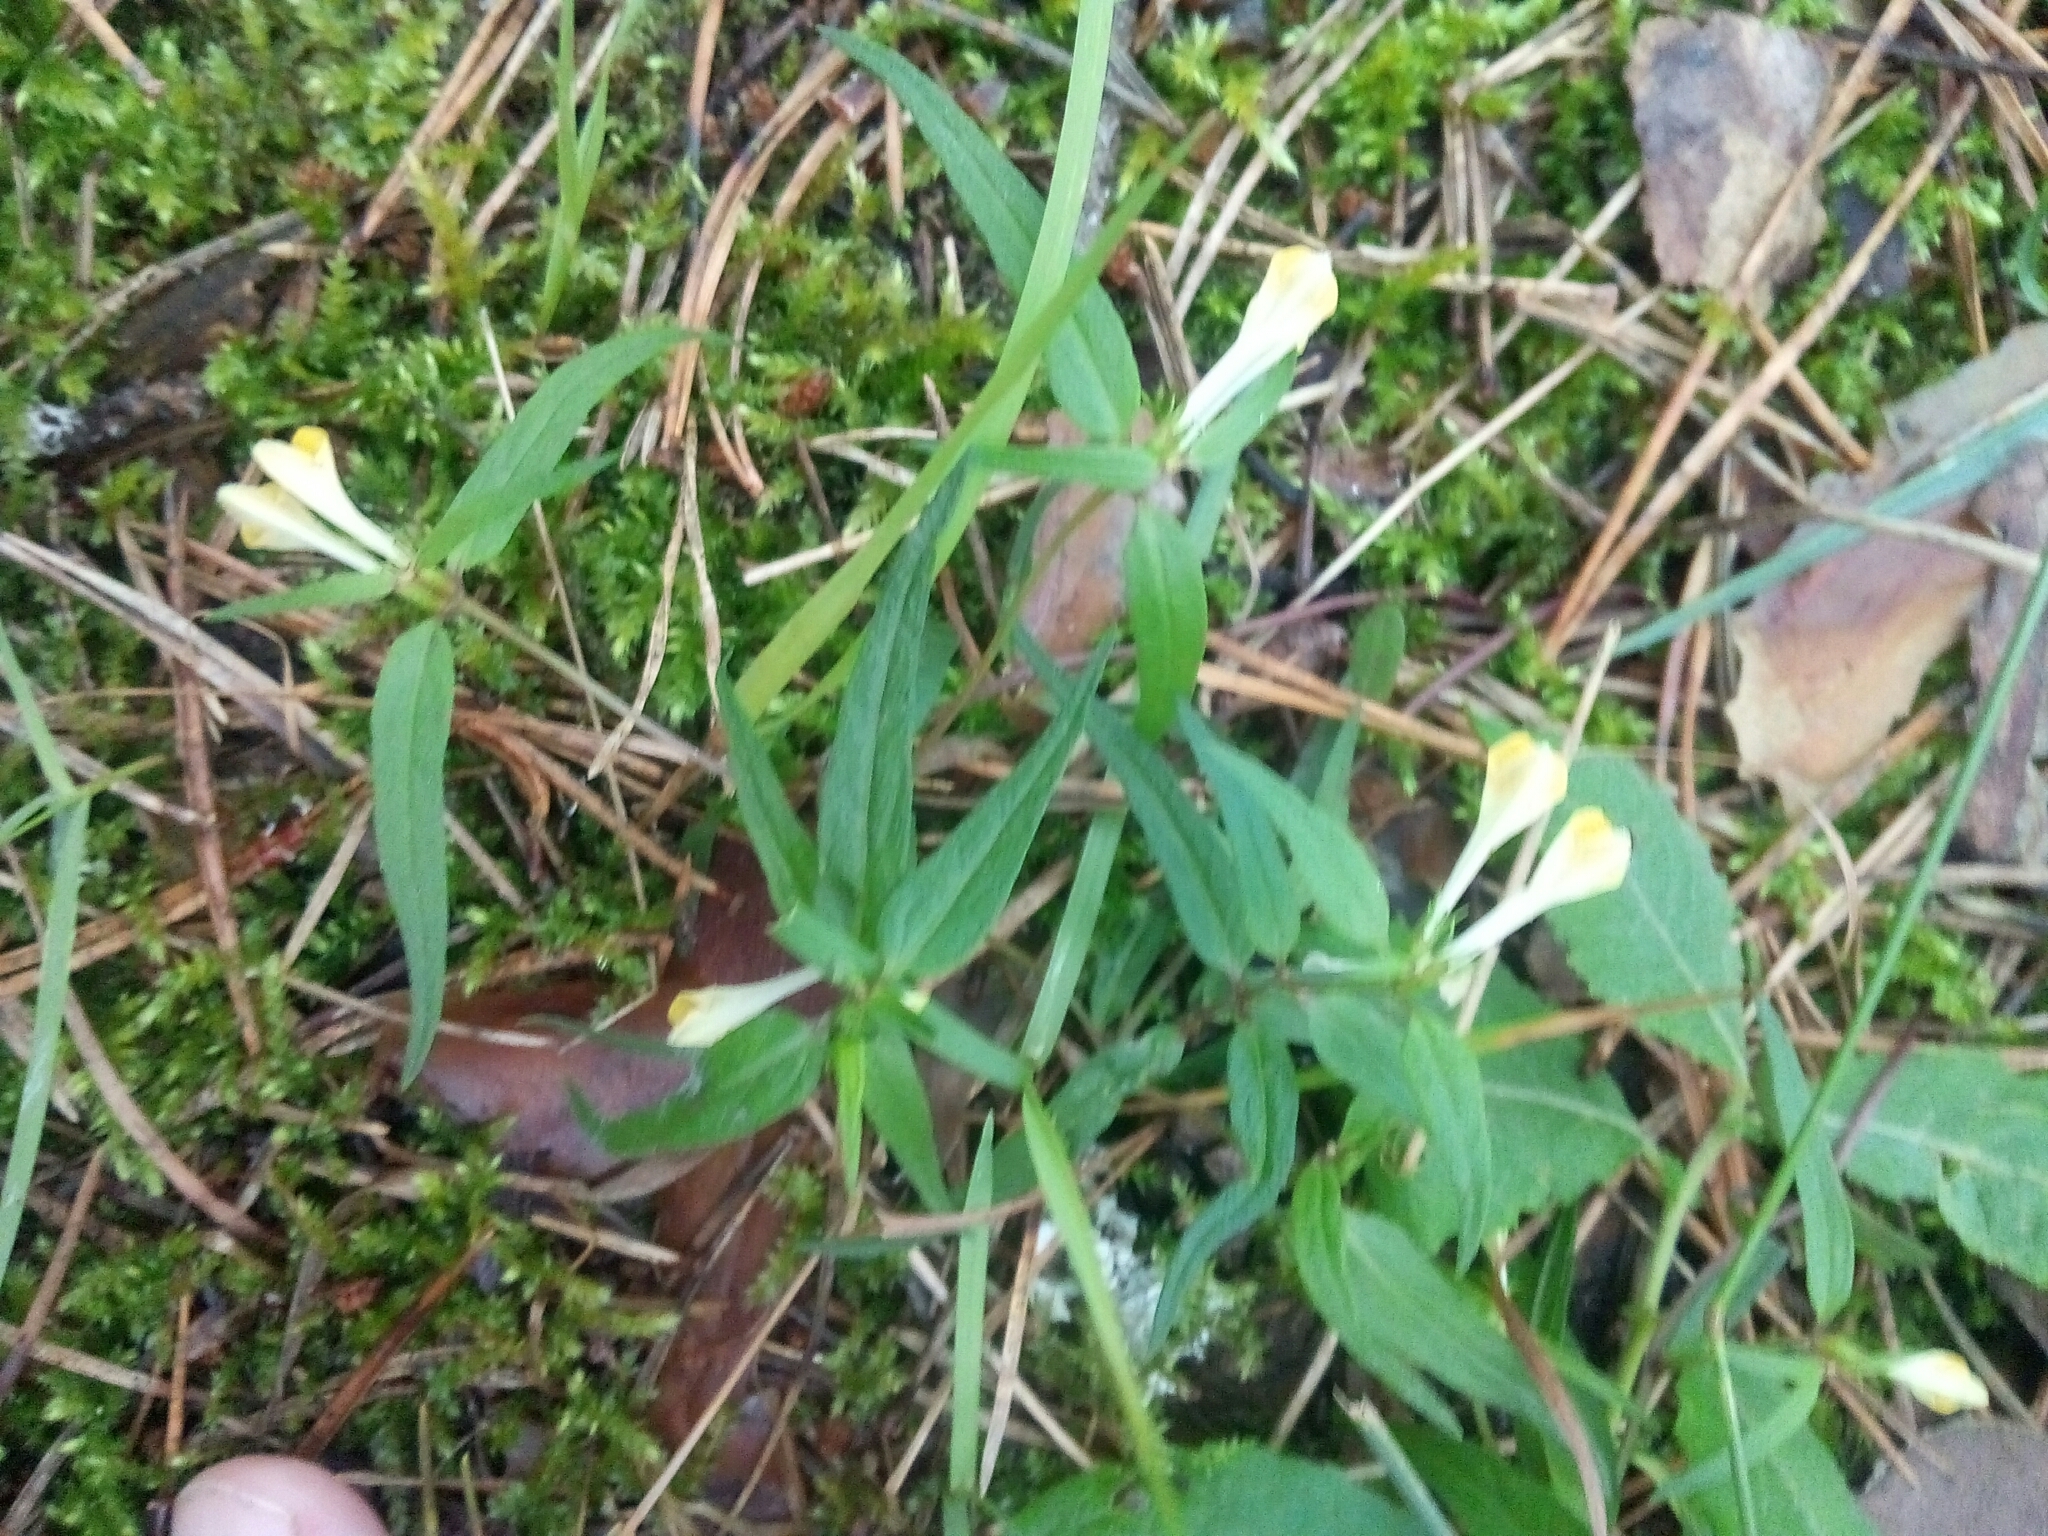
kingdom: Plantae
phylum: Tracheophyta
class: Magnoliopsida
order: Lamiales
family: Orobanchaceae
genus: Melampyrum
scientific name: Melampyrum pratense
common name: Common cow-wheat
